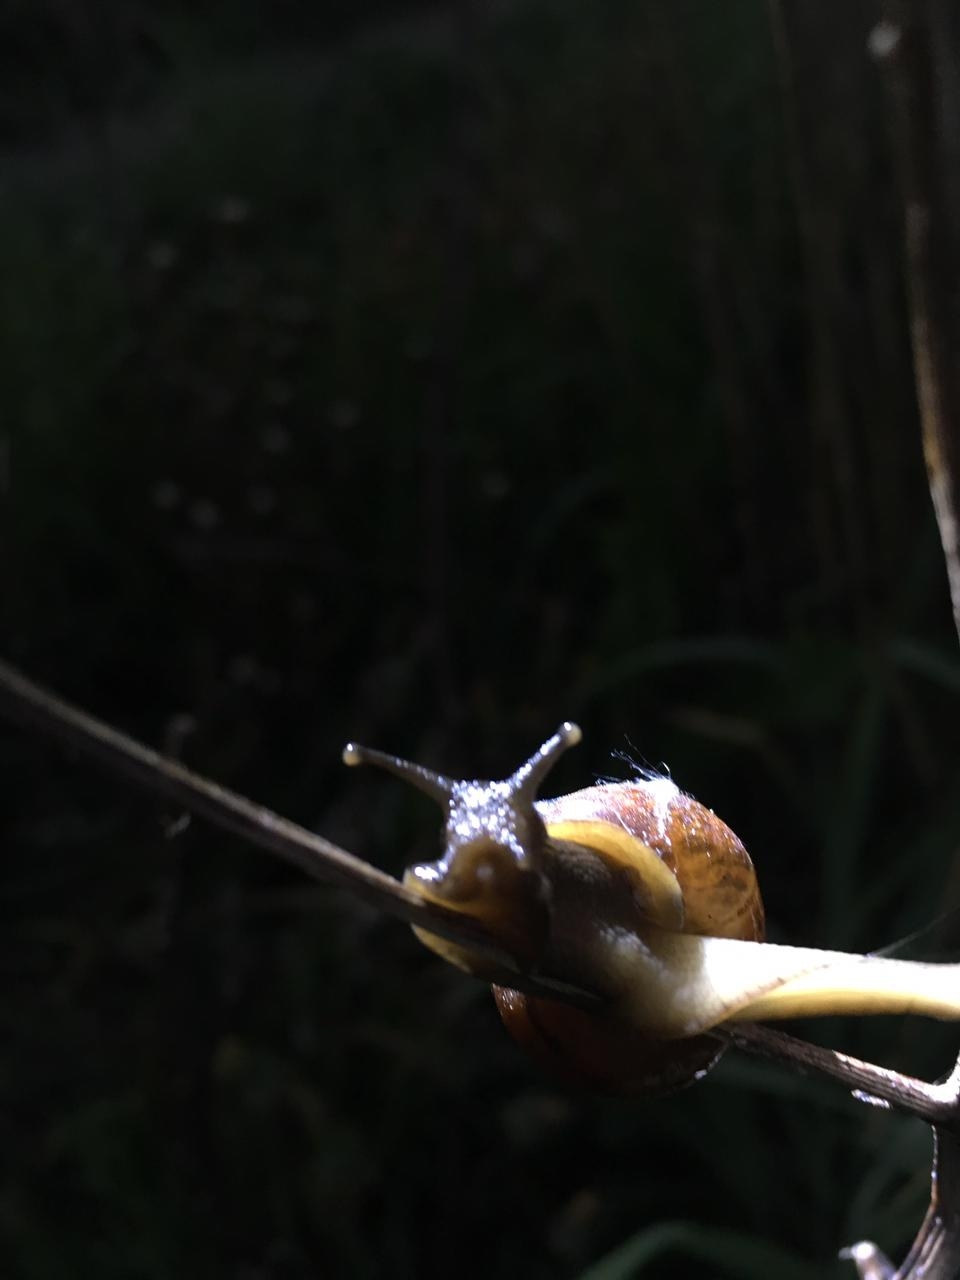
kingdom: Animalia
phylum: Mollusca
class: Gastropoda
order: Stylommatophora
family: Helicidae
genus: Arianta
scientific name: Arianta arbustorum
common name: Copse snail
